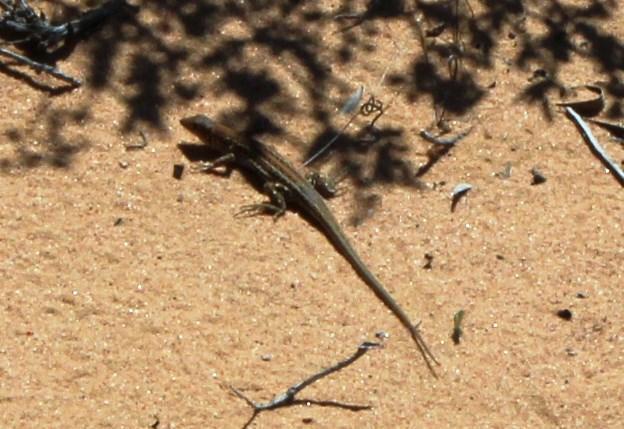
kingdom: Animalia
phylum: Chordata
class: Squamata
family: Lacertidae
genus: Meroles
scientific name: Meroles knoxii
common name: Knox's desert lizard
